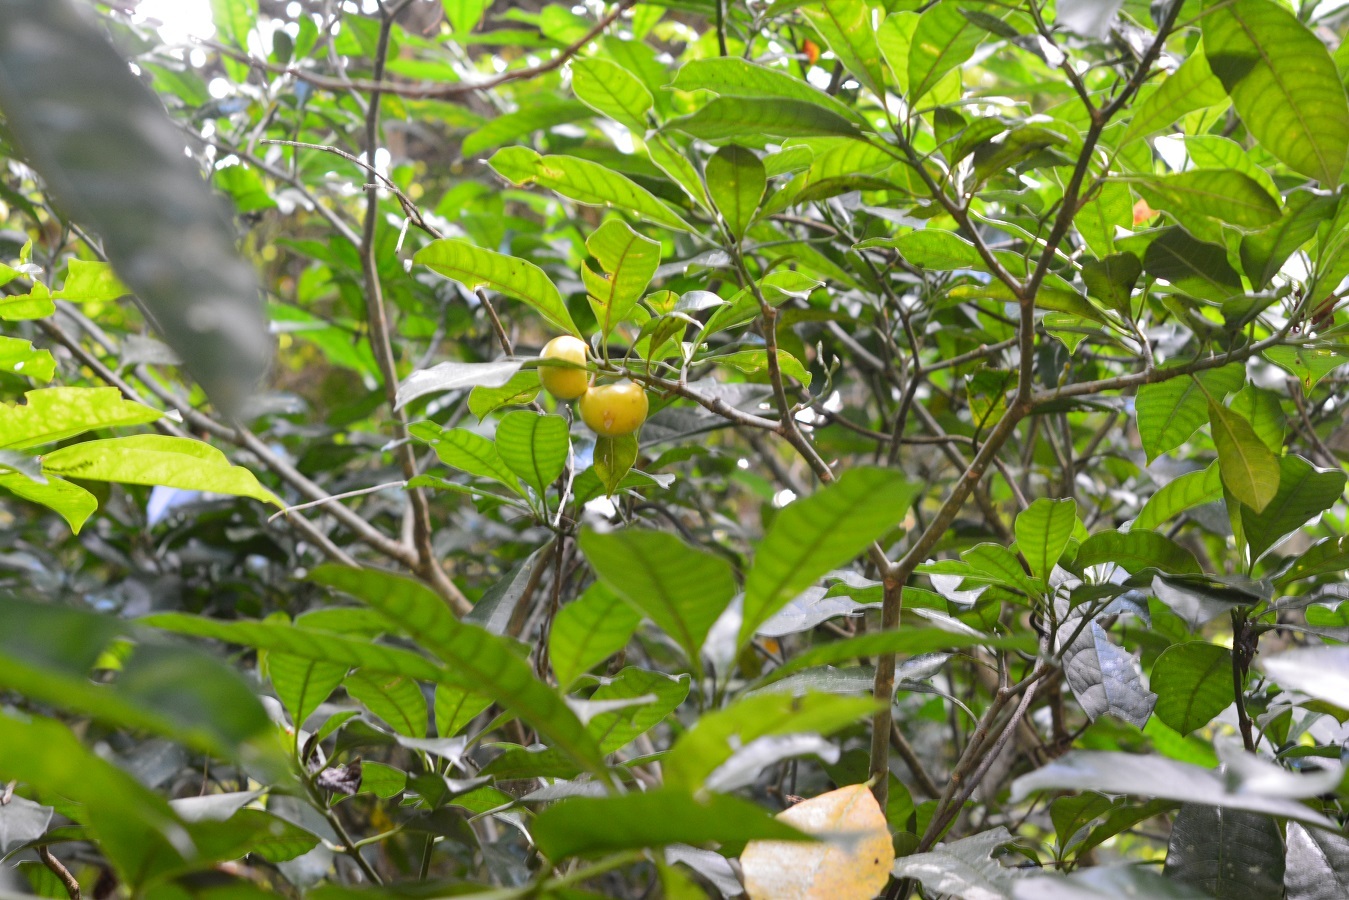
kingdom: Plantae
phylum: Tracheophyta
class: Magnoliopsida
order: Gentianales
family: Apocynaceae
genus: Tabernaemontana
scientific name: Tabernaemontana alba
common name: White milkwood
